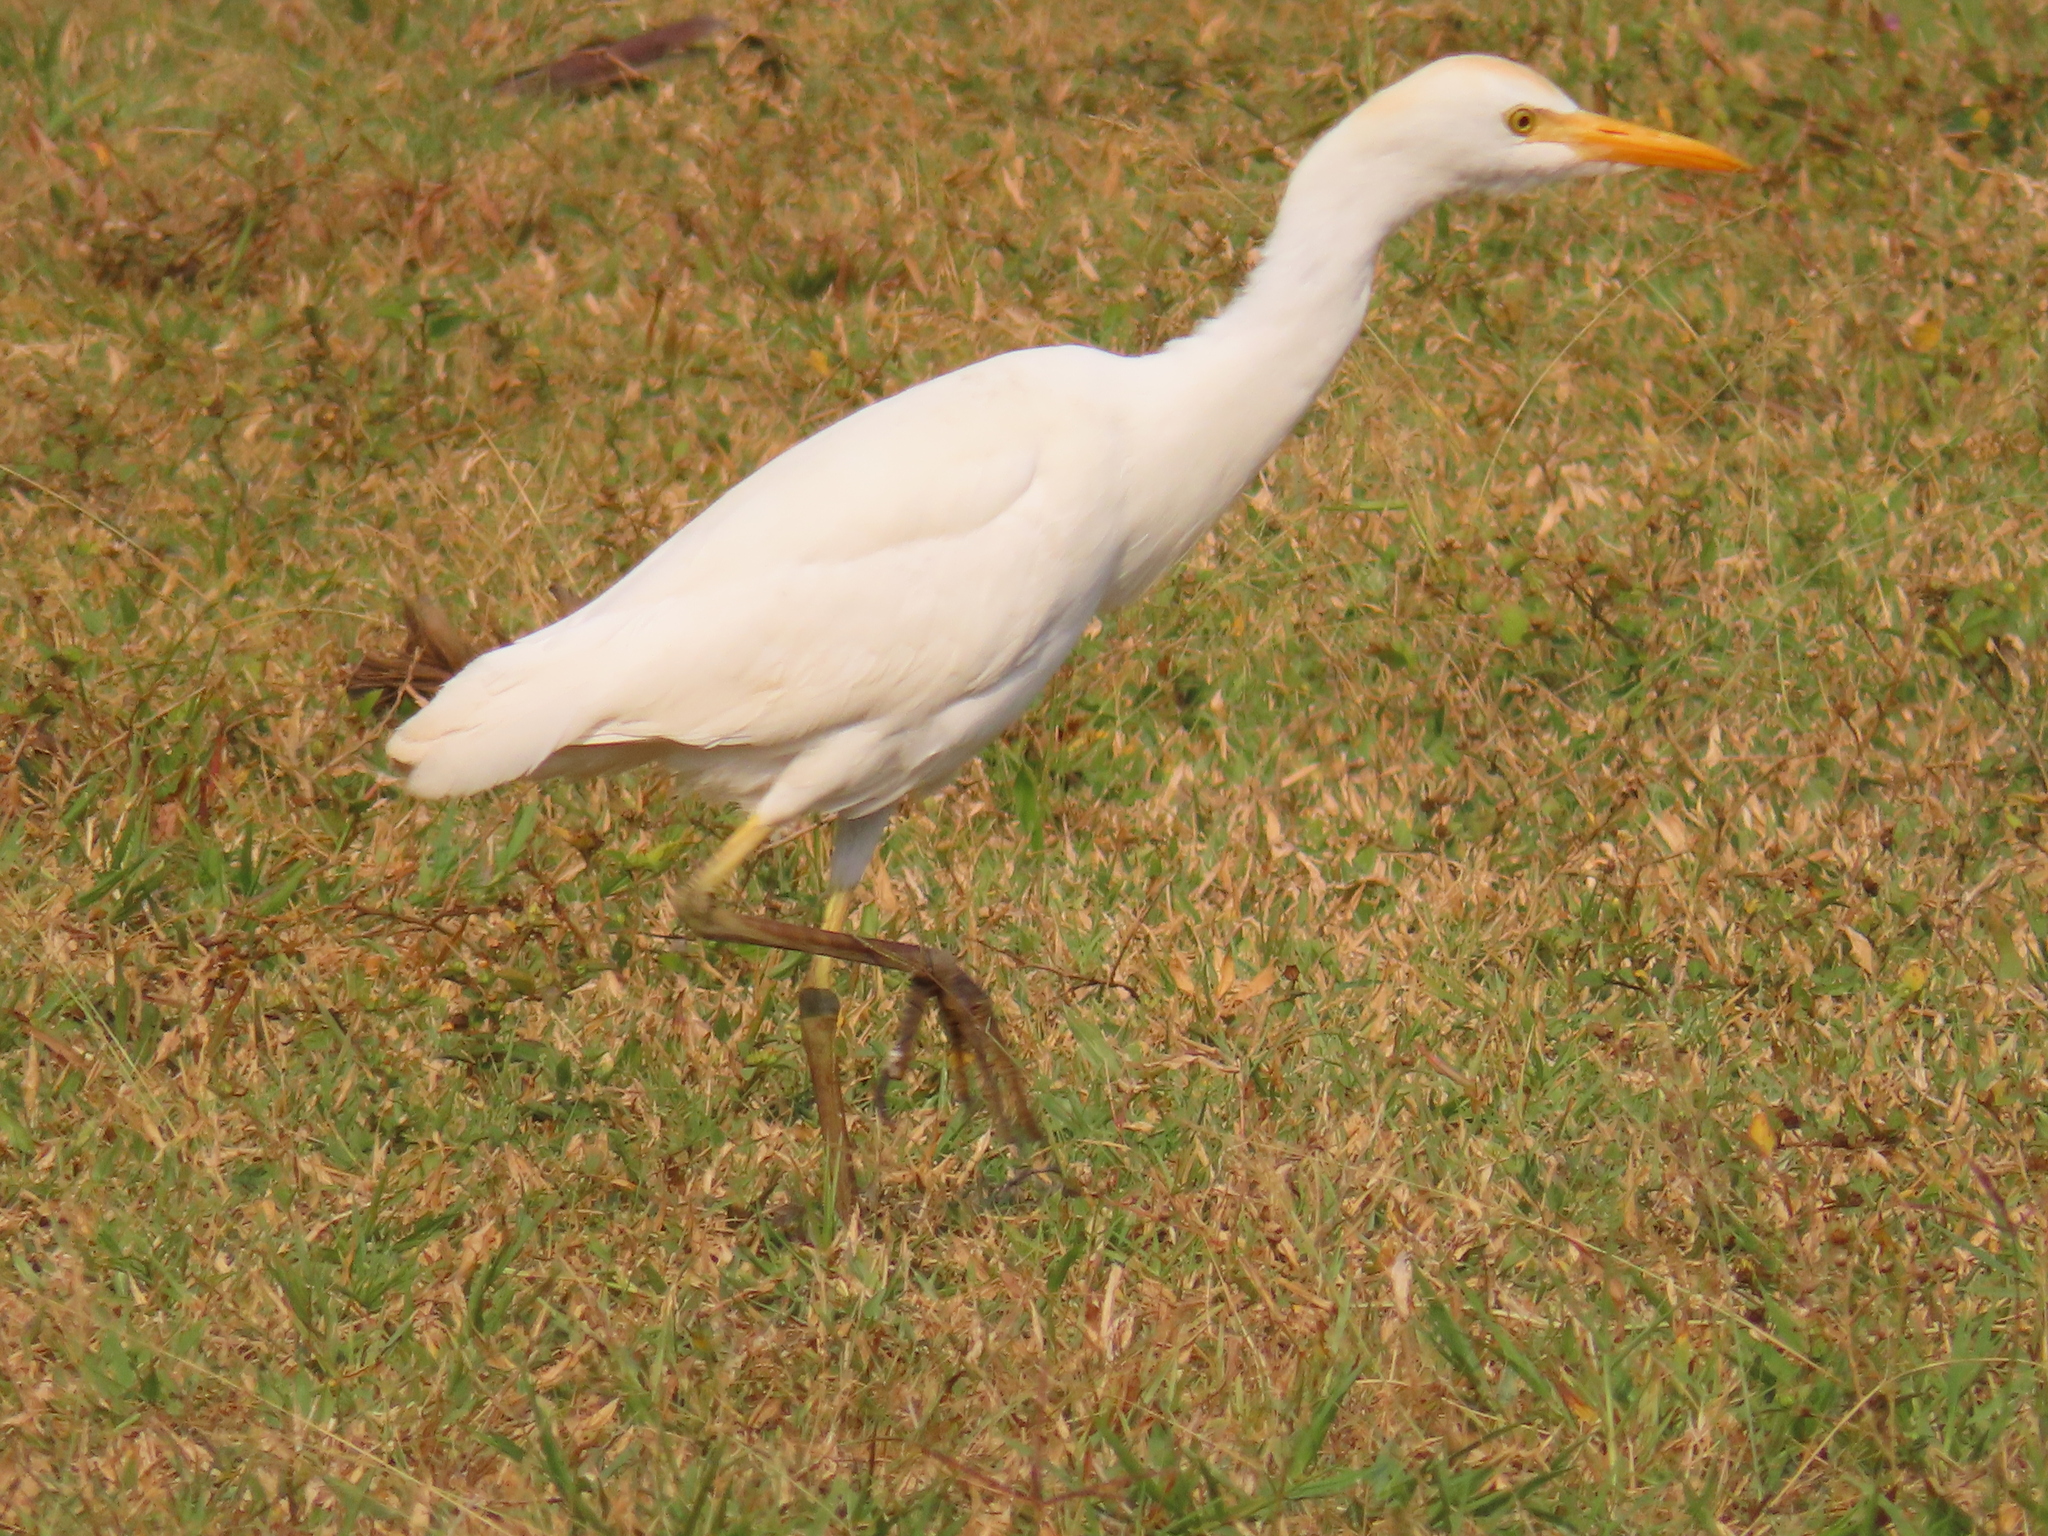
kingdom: Animalia
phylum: Chordata
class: Aves
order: Pelecaniformes
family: Ardeidae
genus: Bubulcus
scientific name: Bubulcus ibis
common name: Cattle egret
